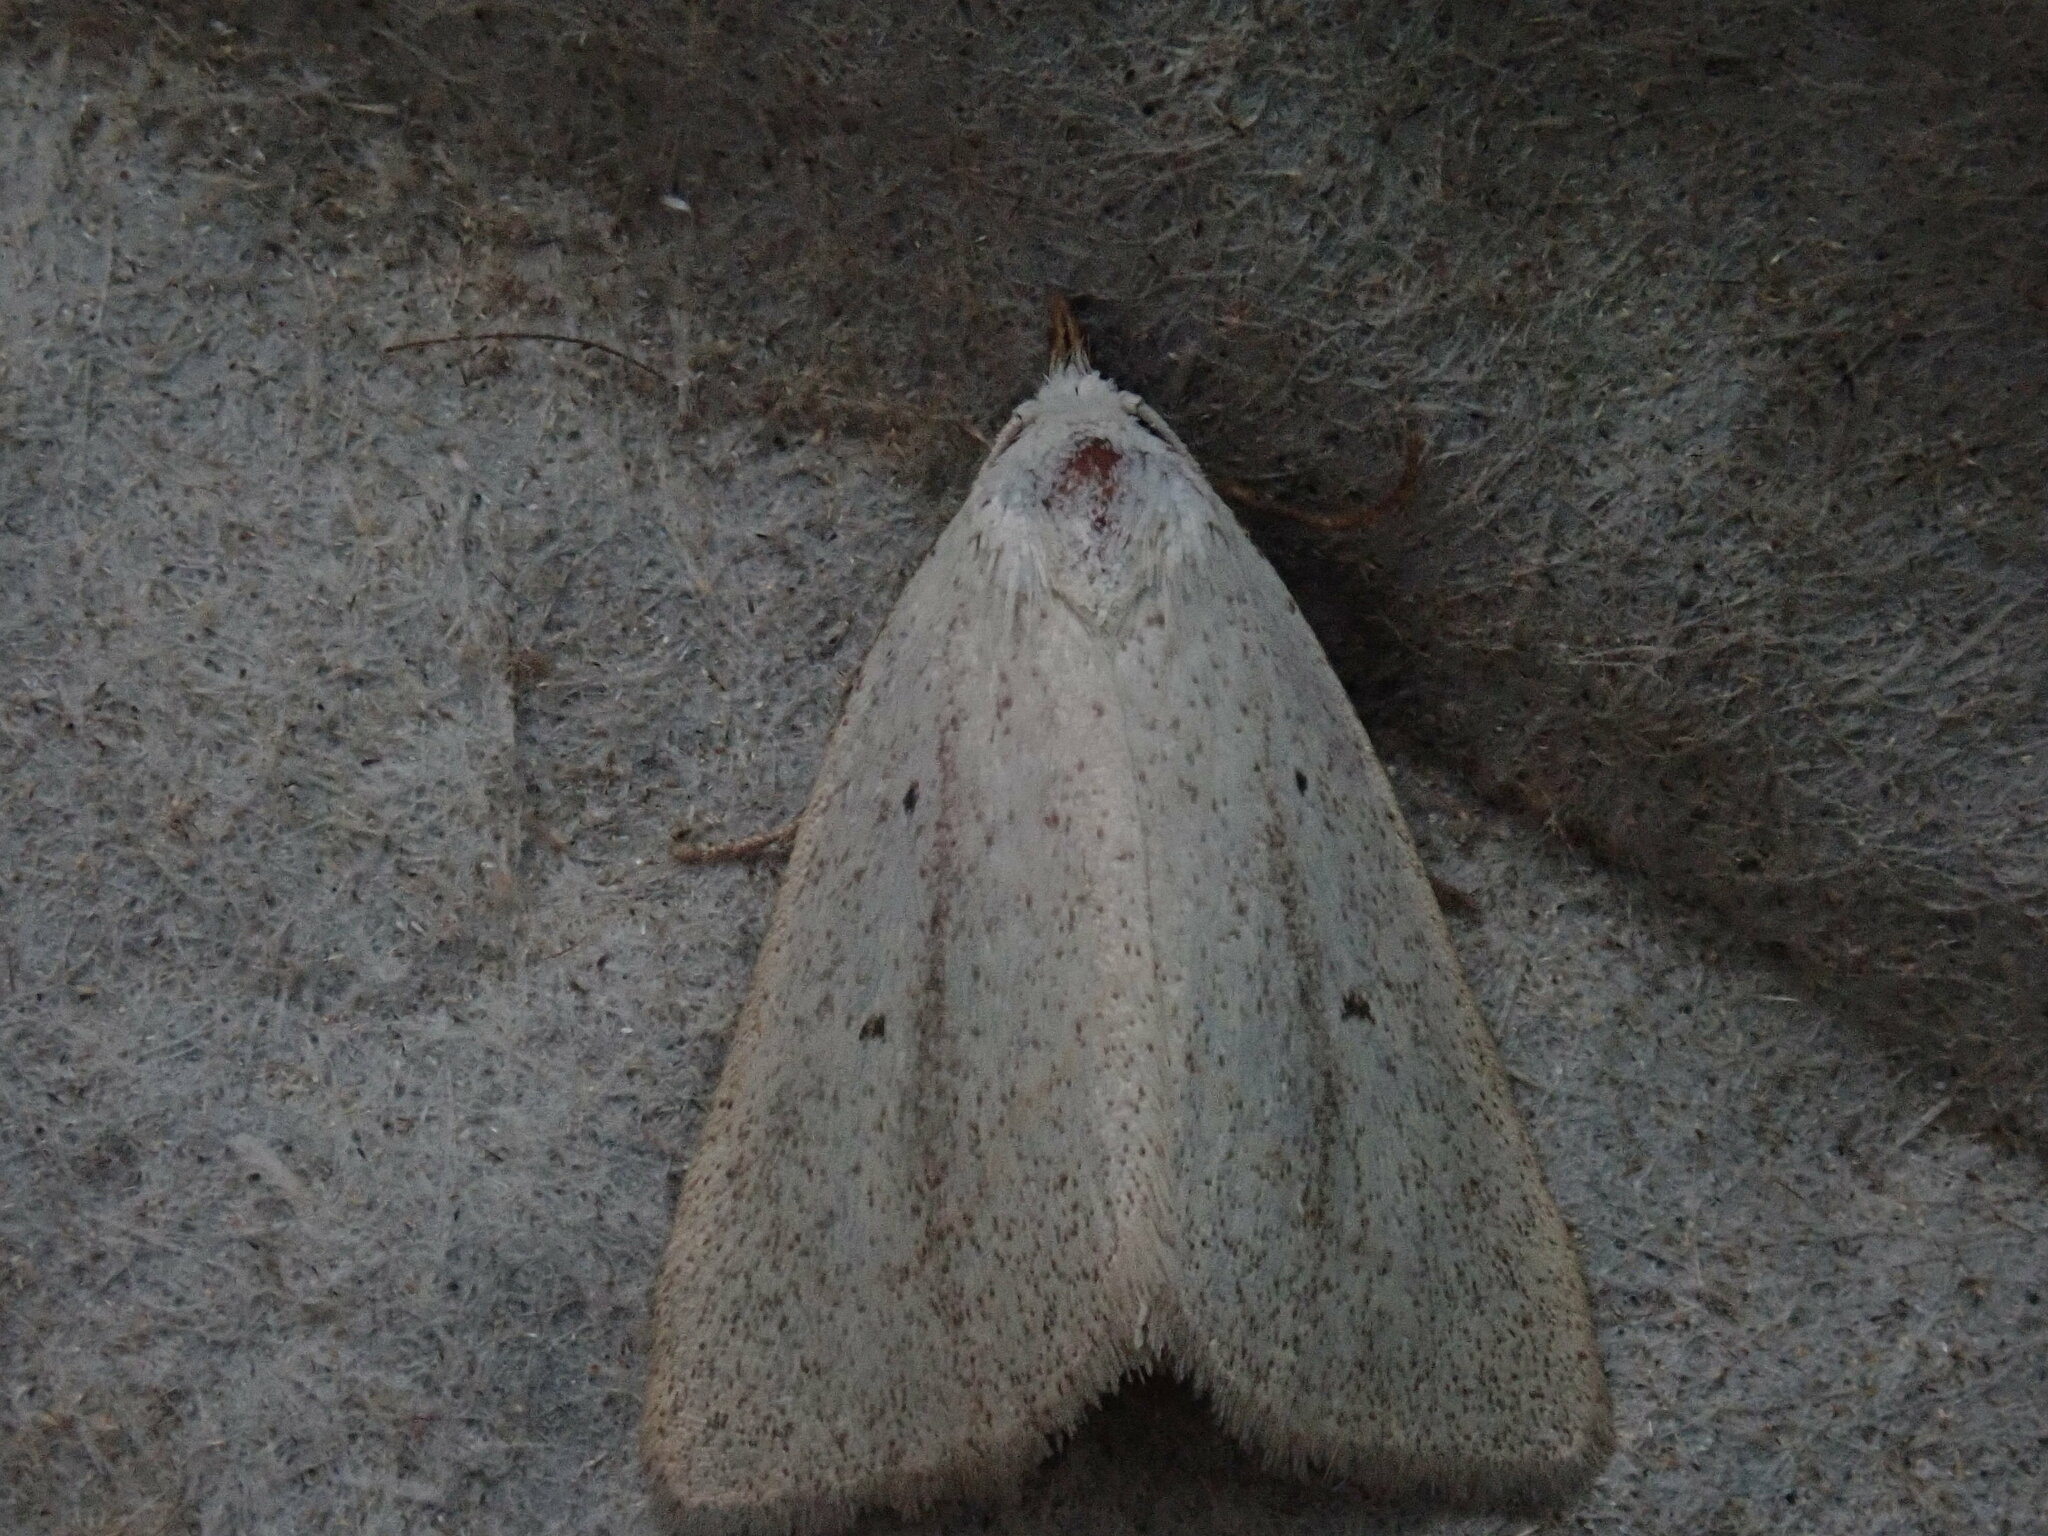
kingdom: Animalia
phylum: Arthropoda
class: Insecta
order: Lepidoptera
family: Erebidae
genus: Gabara
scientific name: Gabara subnivosella
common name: Snowy gabara
